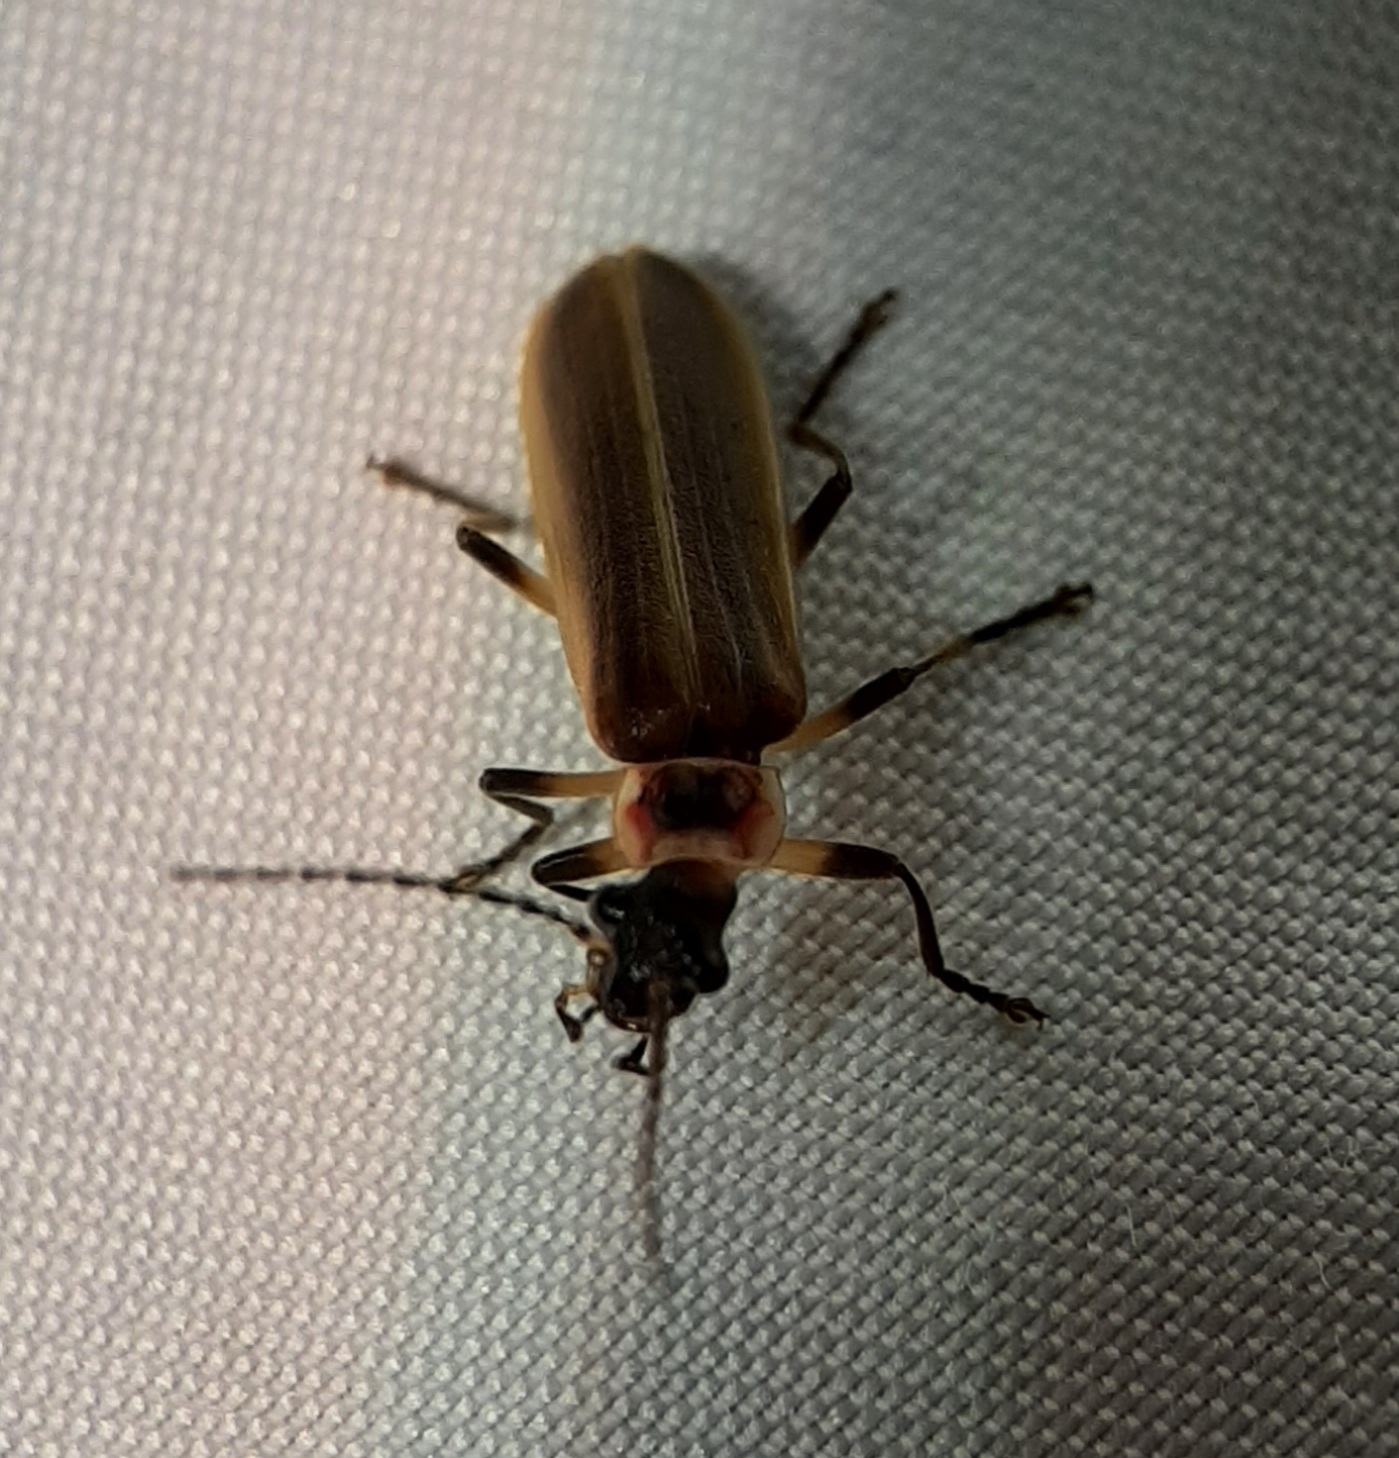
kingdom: Animalia
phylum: Arthropoda
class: Insecta
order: Coleoptera
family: Cantharidae
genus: Podabrus
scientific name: Podabrus appendiculatus
